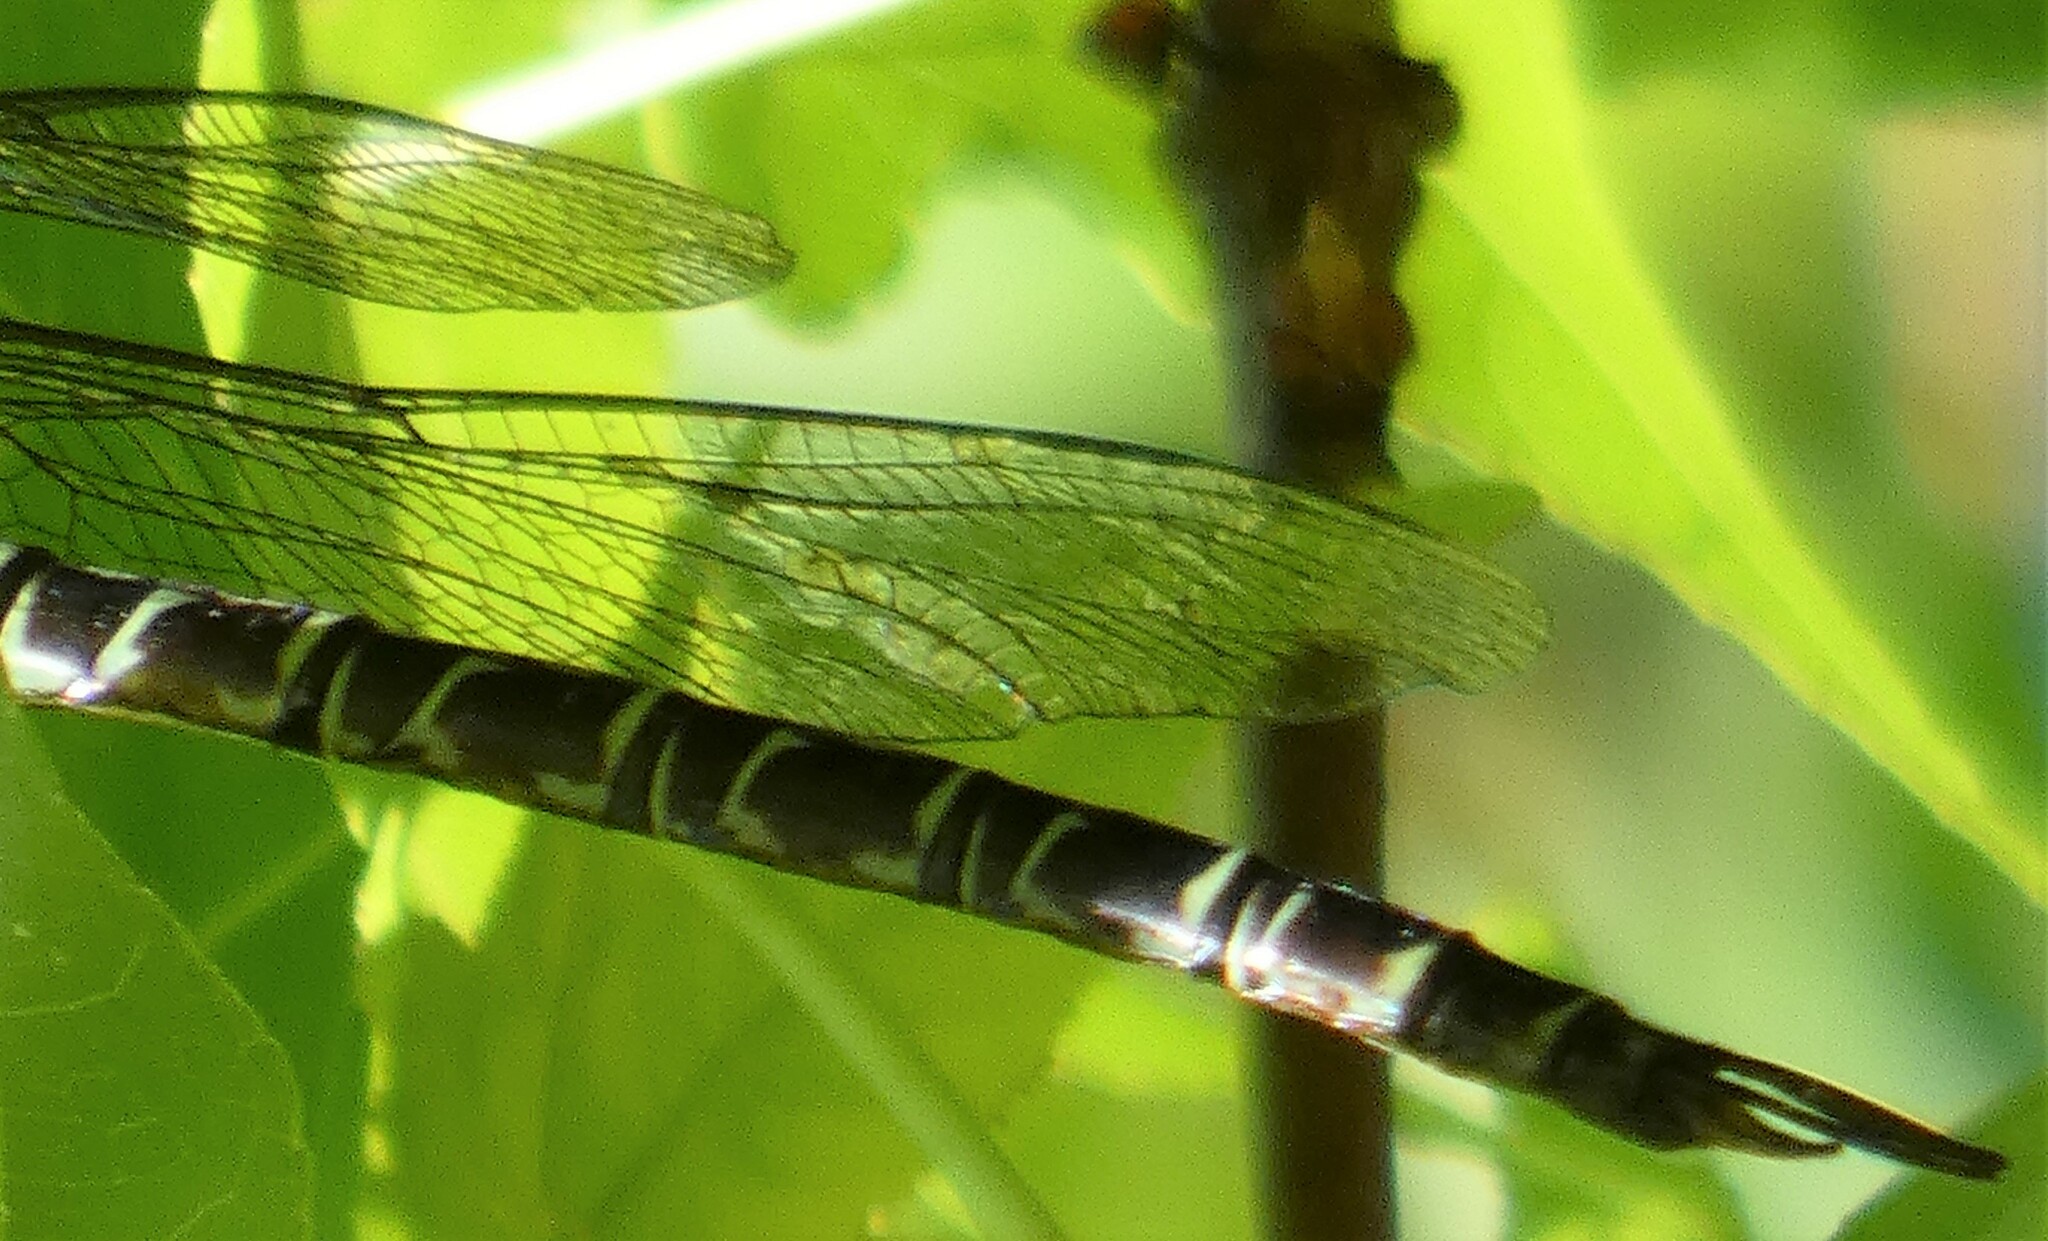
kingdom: Animalia
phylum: Arthropoda
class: Insecta
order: Odonata
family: Aeshnidae
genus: Coryphaeschna
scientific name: Coryphaeschna ingens
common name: Regal darner
